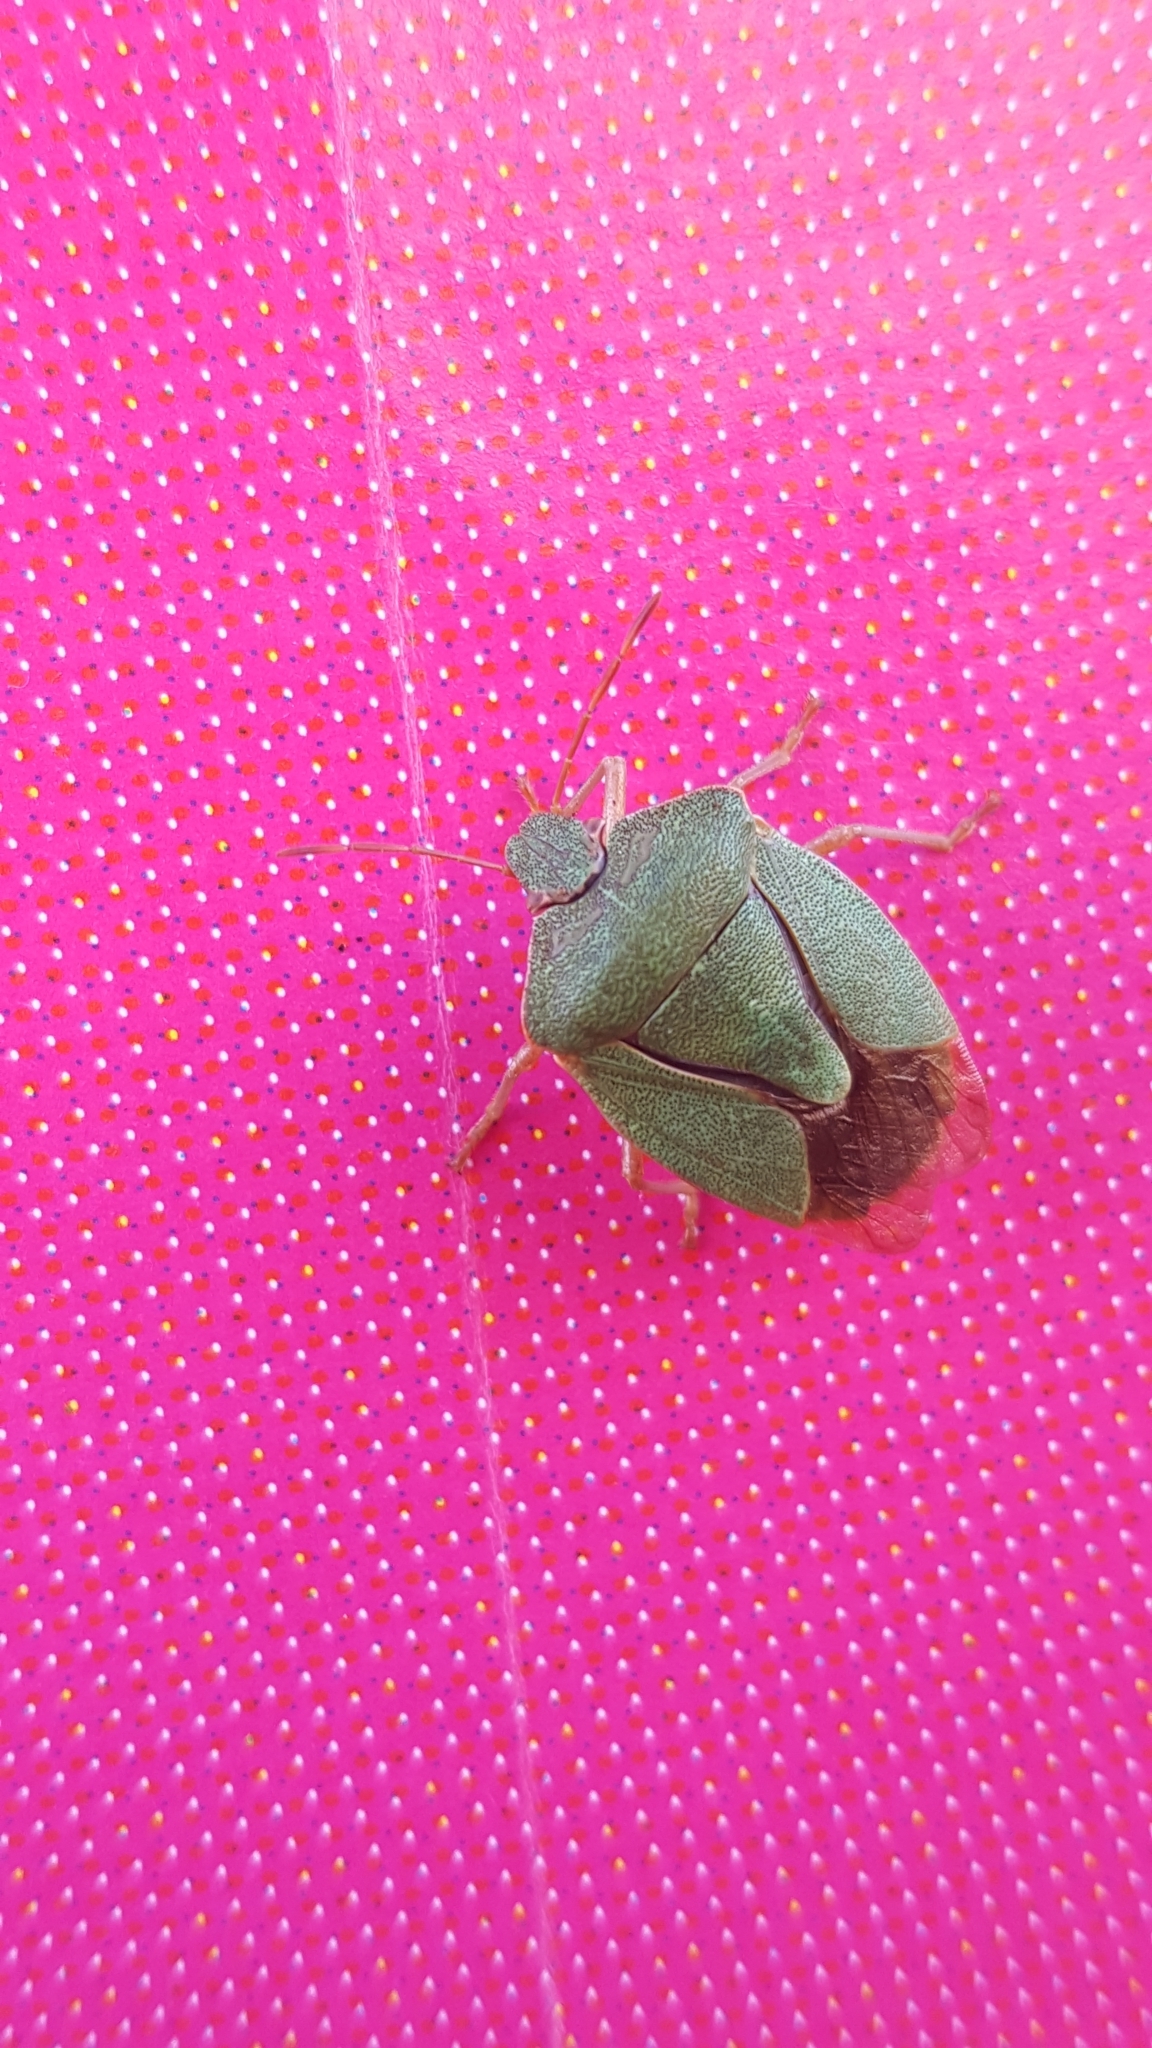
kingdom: Animalia
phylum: Arthropoda
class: Insecta
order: Hemiptera
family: Pentatomidae
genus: Palomena
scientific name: Palomena prasina
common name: Green shieldbug
